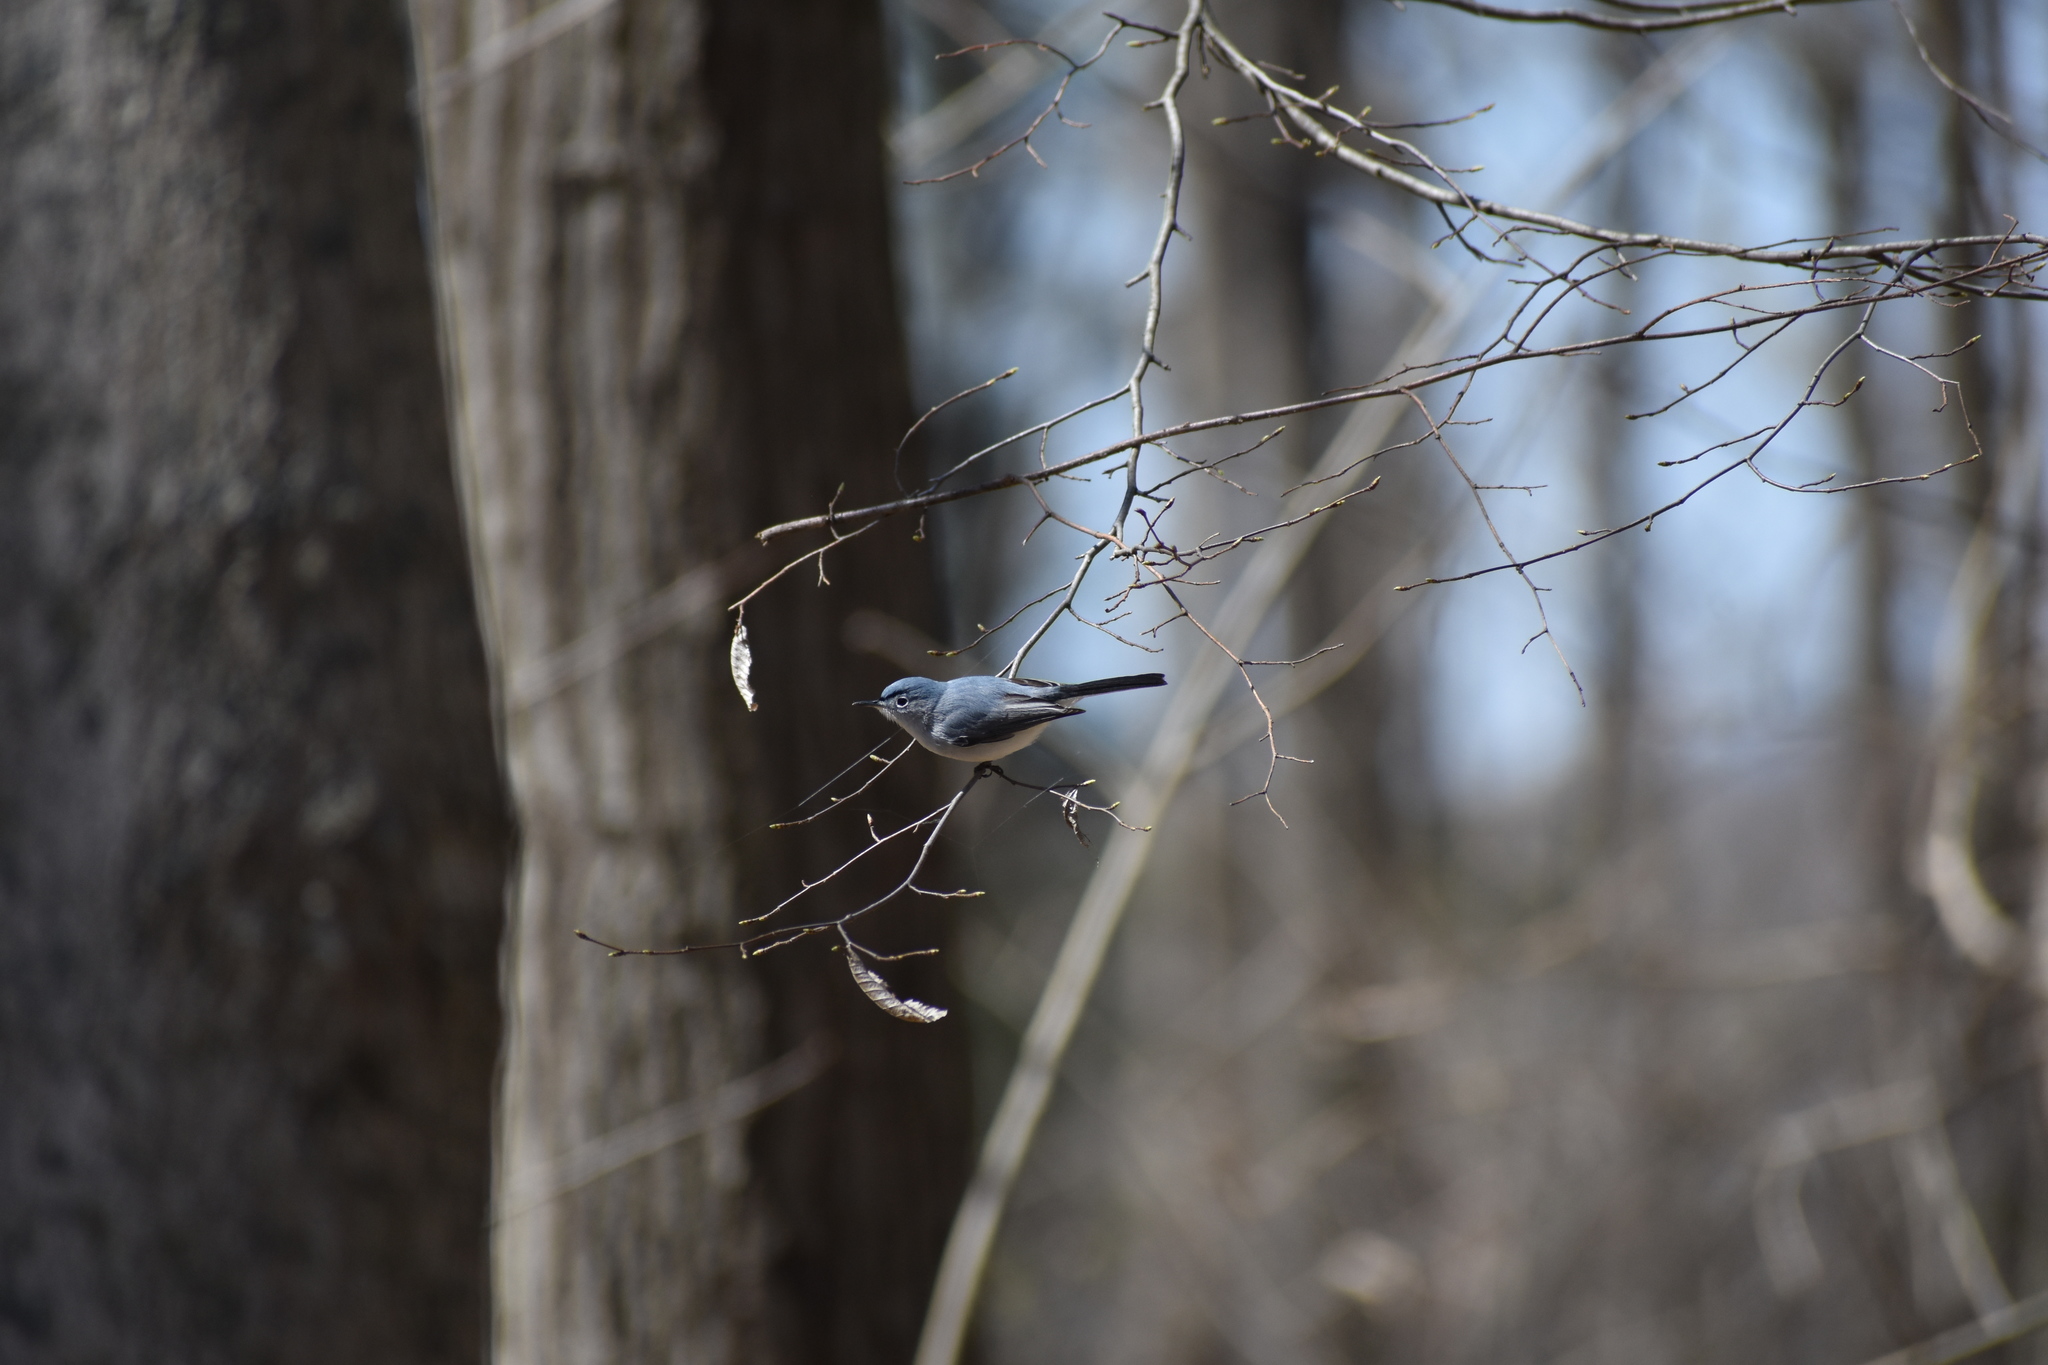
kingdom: Animalia
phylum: Chordata
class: Aves
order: Passeriformes
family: Polioptilidae
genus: Polioptila
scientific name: Polioptila caerulea
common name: Blue-gray gnatcatcher
